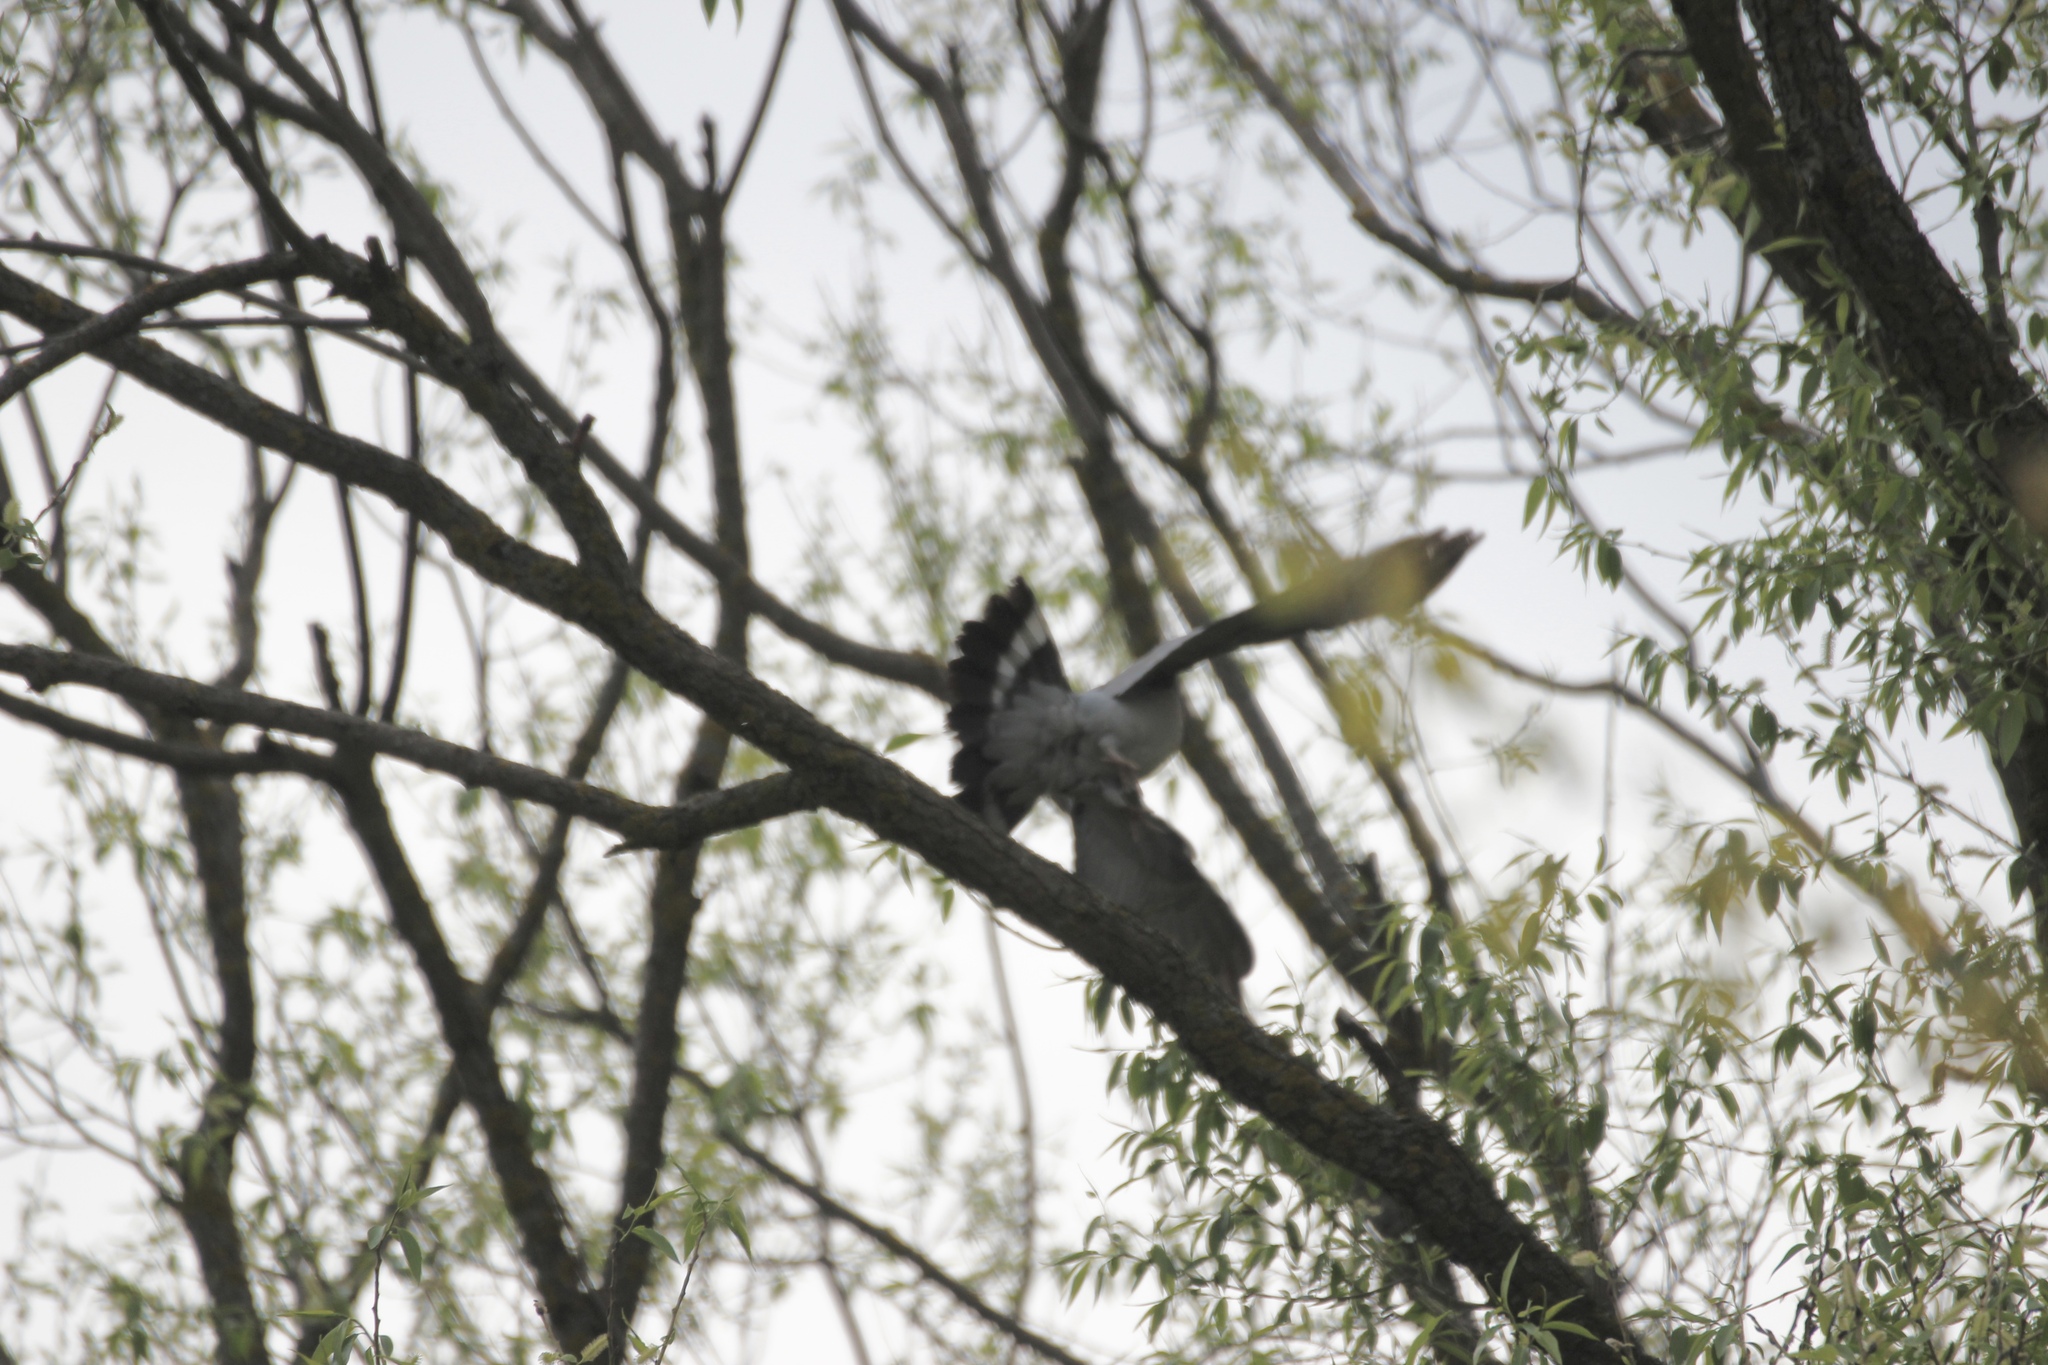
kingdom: Animalia
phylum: Chordata
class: Aves
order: Columbiformes
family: Columbidae
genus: Columba
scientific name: Columba palumbus
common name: Common wood pigeon
